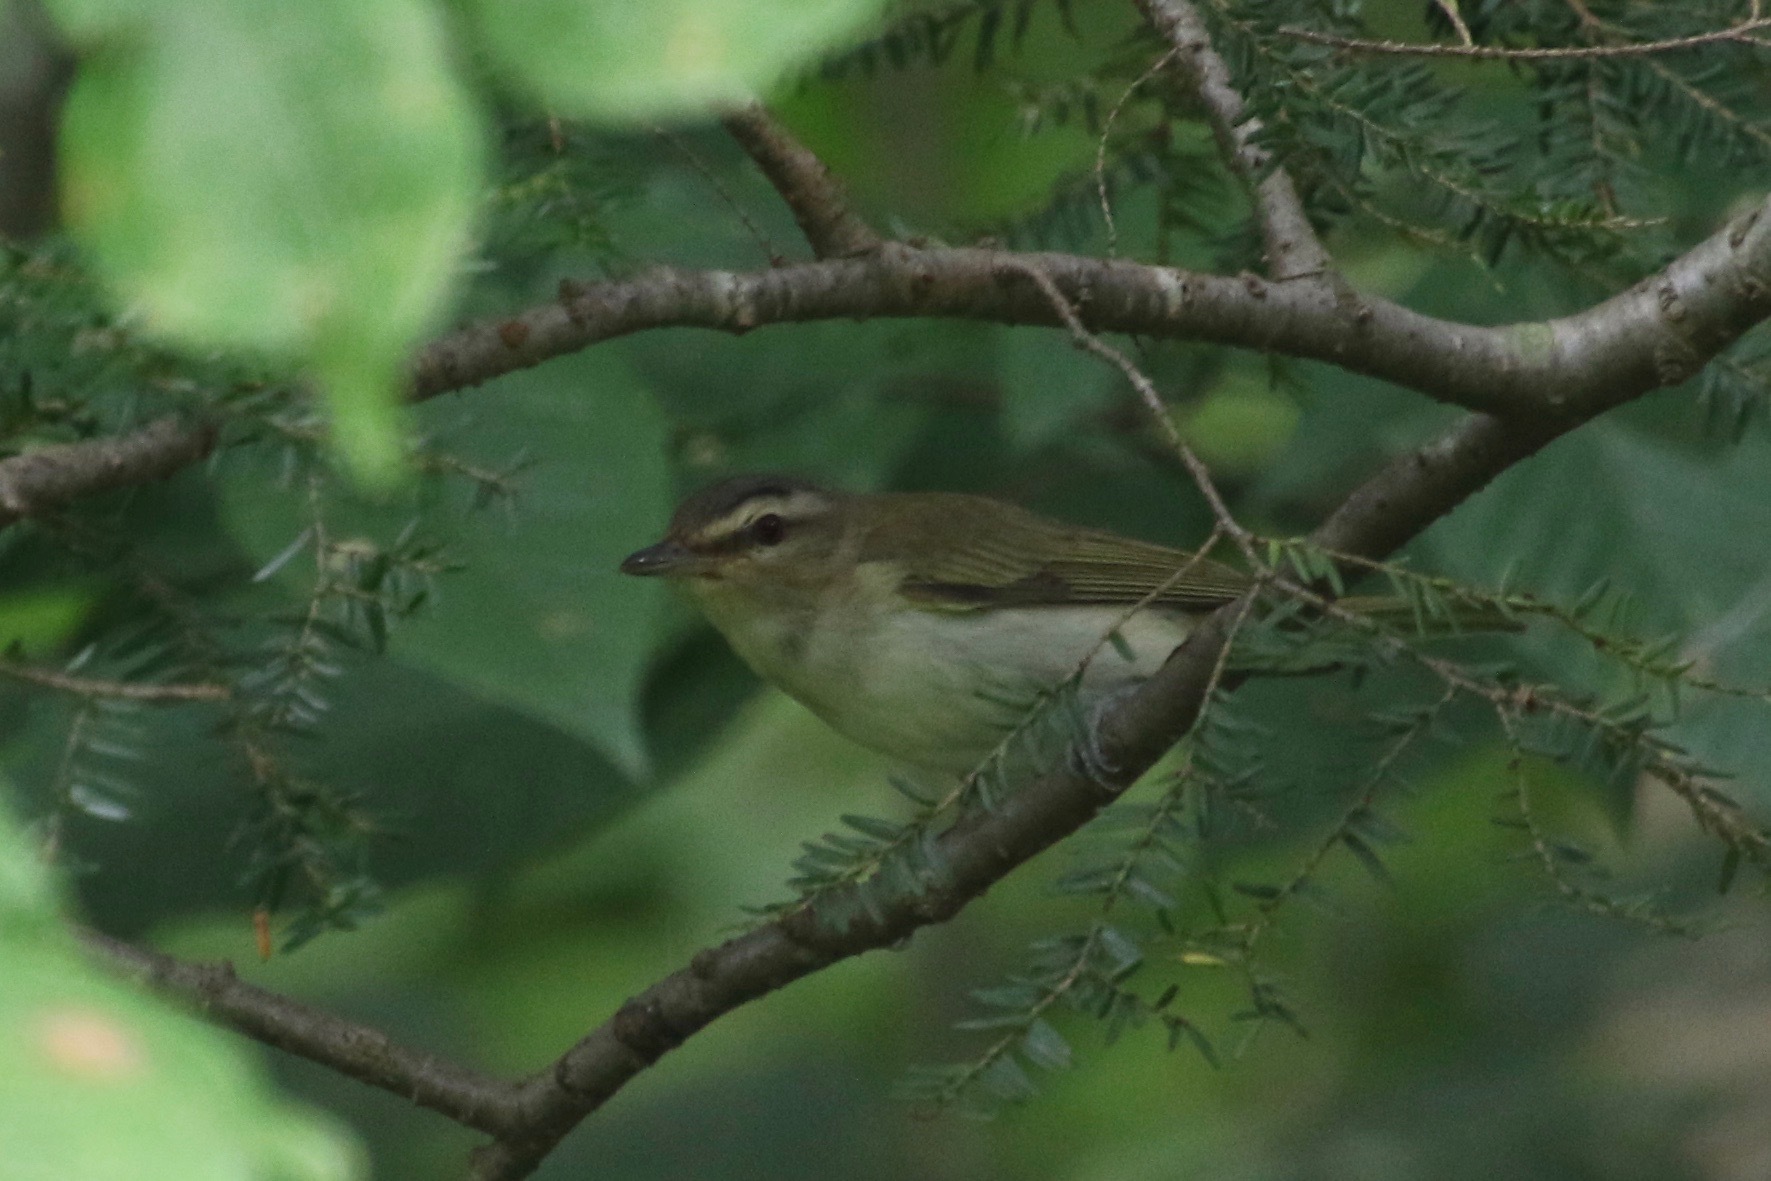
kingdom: Animalia
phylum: Chordata
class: Aves
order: Passeriformes
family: Vireonidae
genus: Vireo
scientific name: Vireo olivaceus
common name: Red-eyed vireo
